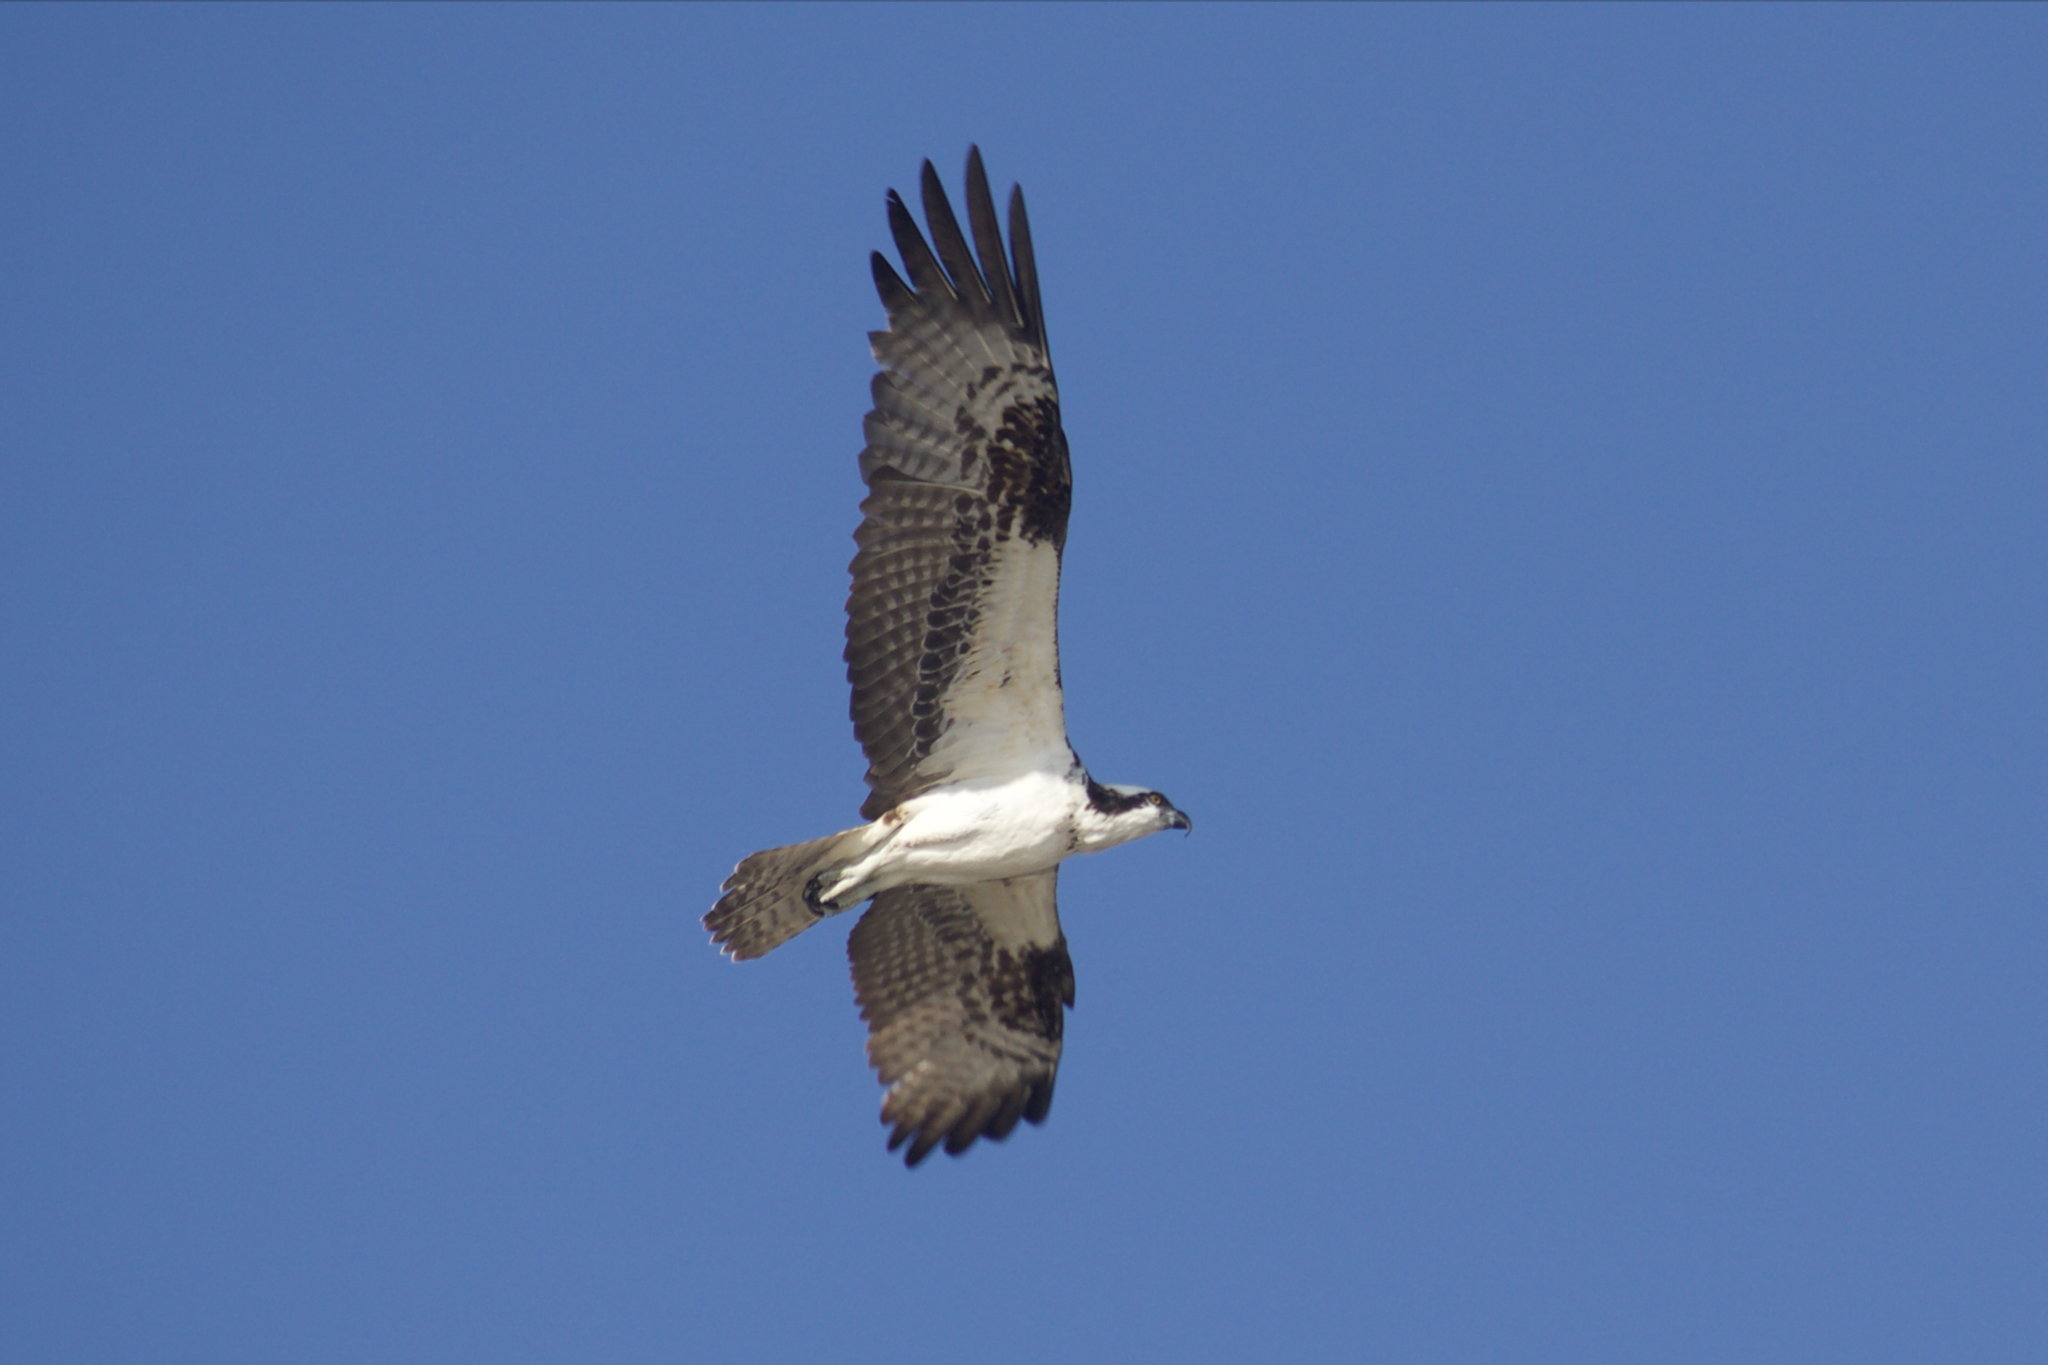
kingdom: Animalia
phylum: Chordata
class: Aves
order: Accipitriformes
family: Pandionidae
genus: Pandion
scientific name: Pandion haliaetus
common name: Osprey
